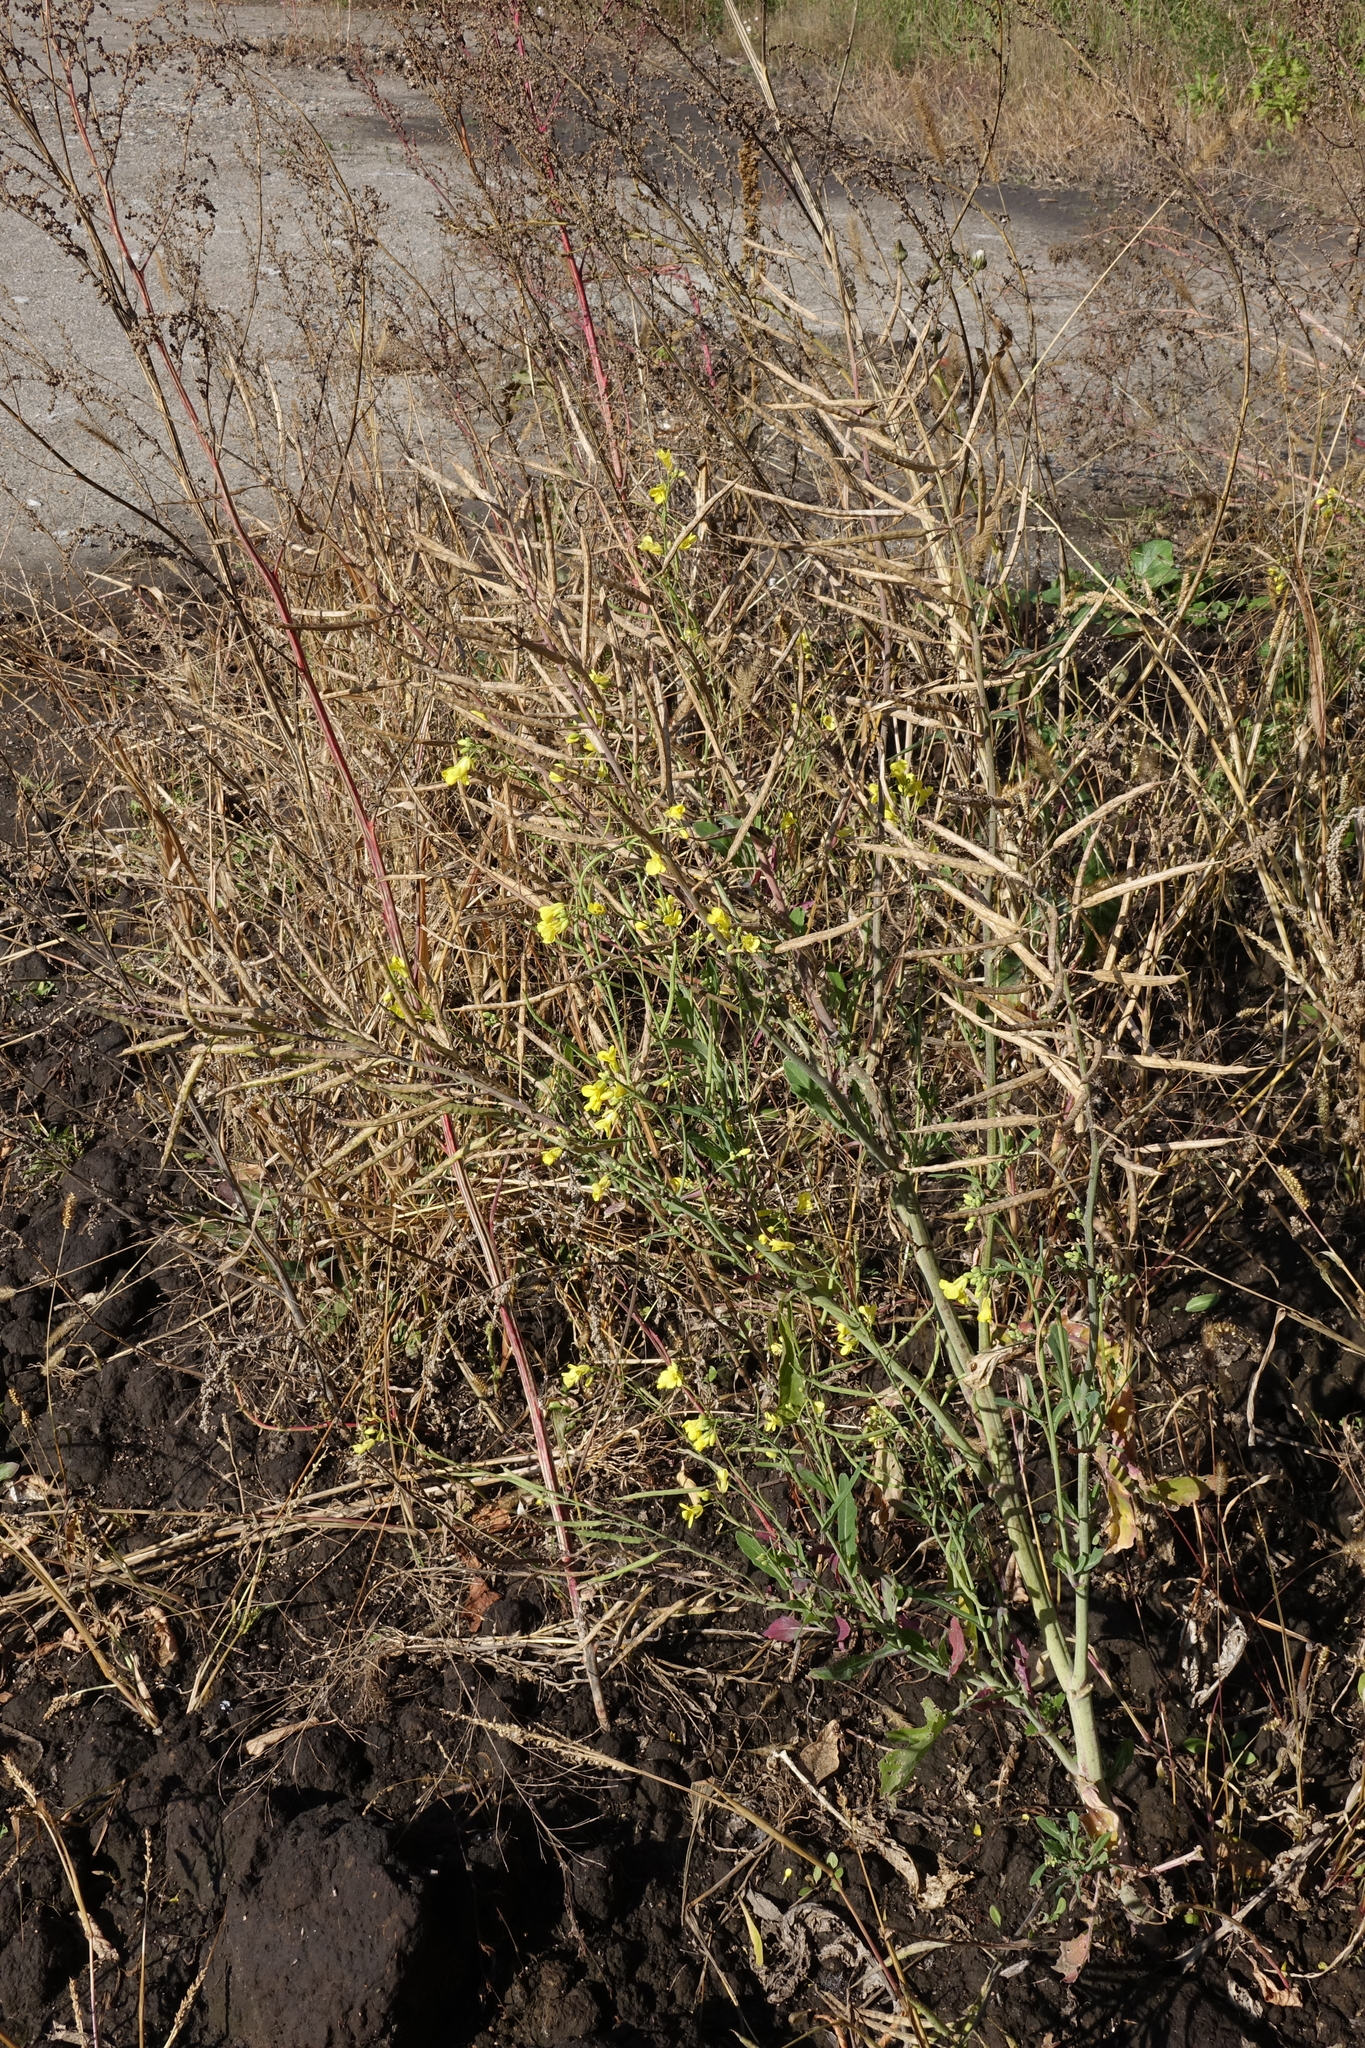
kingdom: Plantae
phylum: Tracheophyta
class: Magnoliopsida
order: Brassicales
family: Brassicaceae
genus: Brassica
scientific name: Brassica napus
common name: Rape
